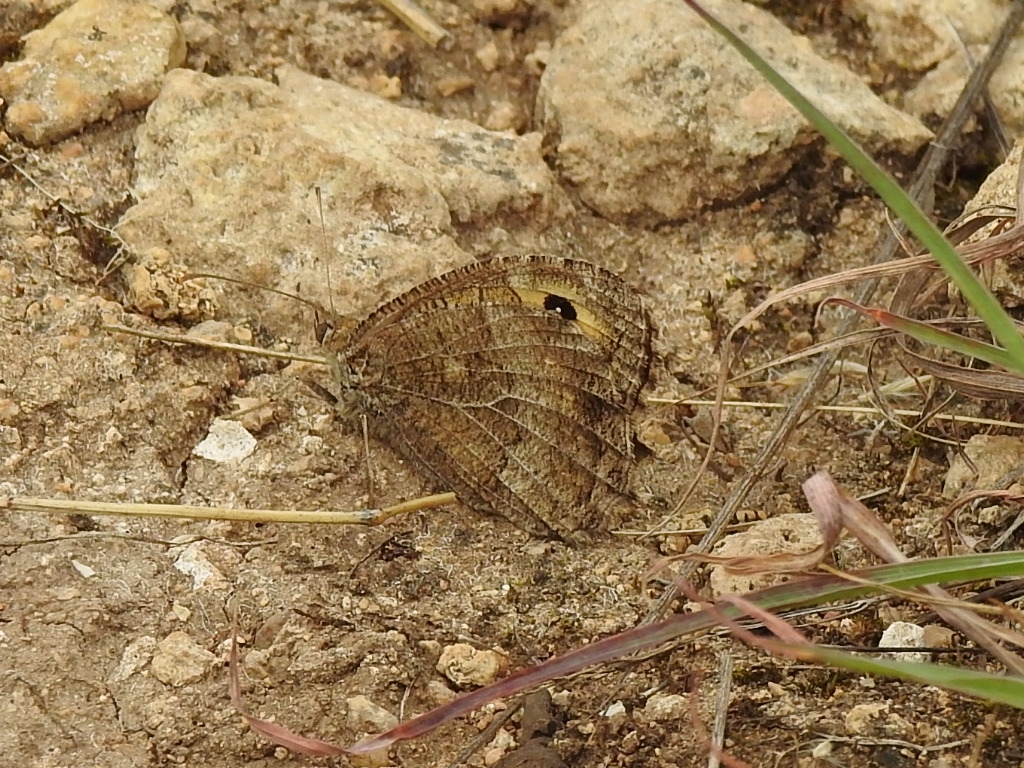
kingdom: Animalia
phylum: Arthropoda
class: Insecta
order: Lepidoptera
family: Nymphalidae
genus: Arethusana
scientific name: Arethusana arethusa
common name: False grayling
